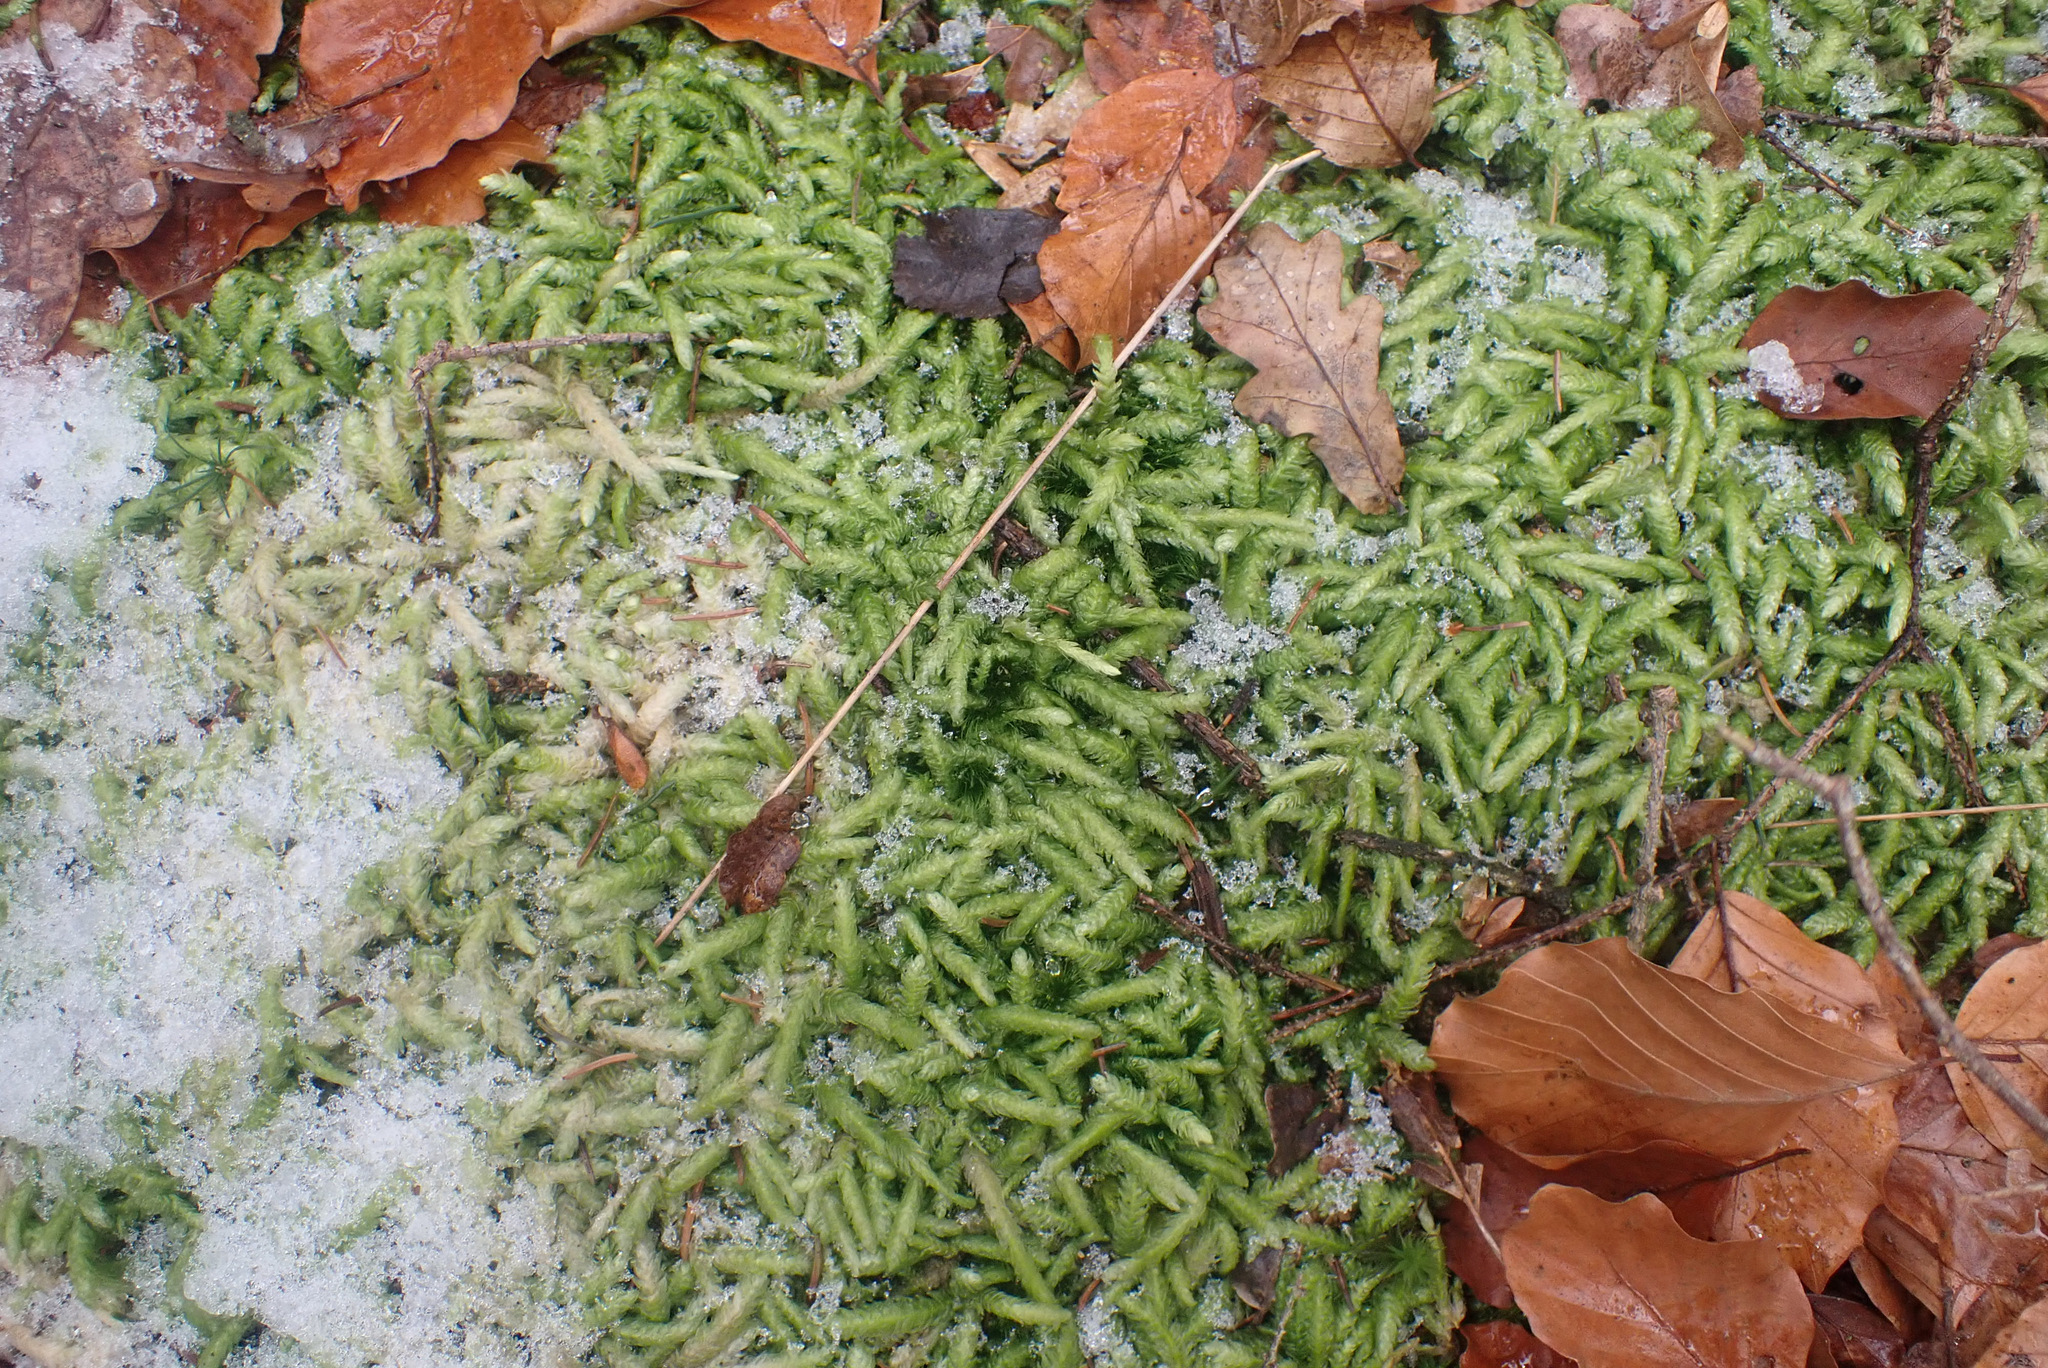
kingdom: Plantae
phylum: Bryophyta
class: Bryopsida
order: Hypnales
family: Plagiotheciaceae
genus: Plagiothecium
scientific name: Plagiothecium undulatum
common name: Waved silk-moss
